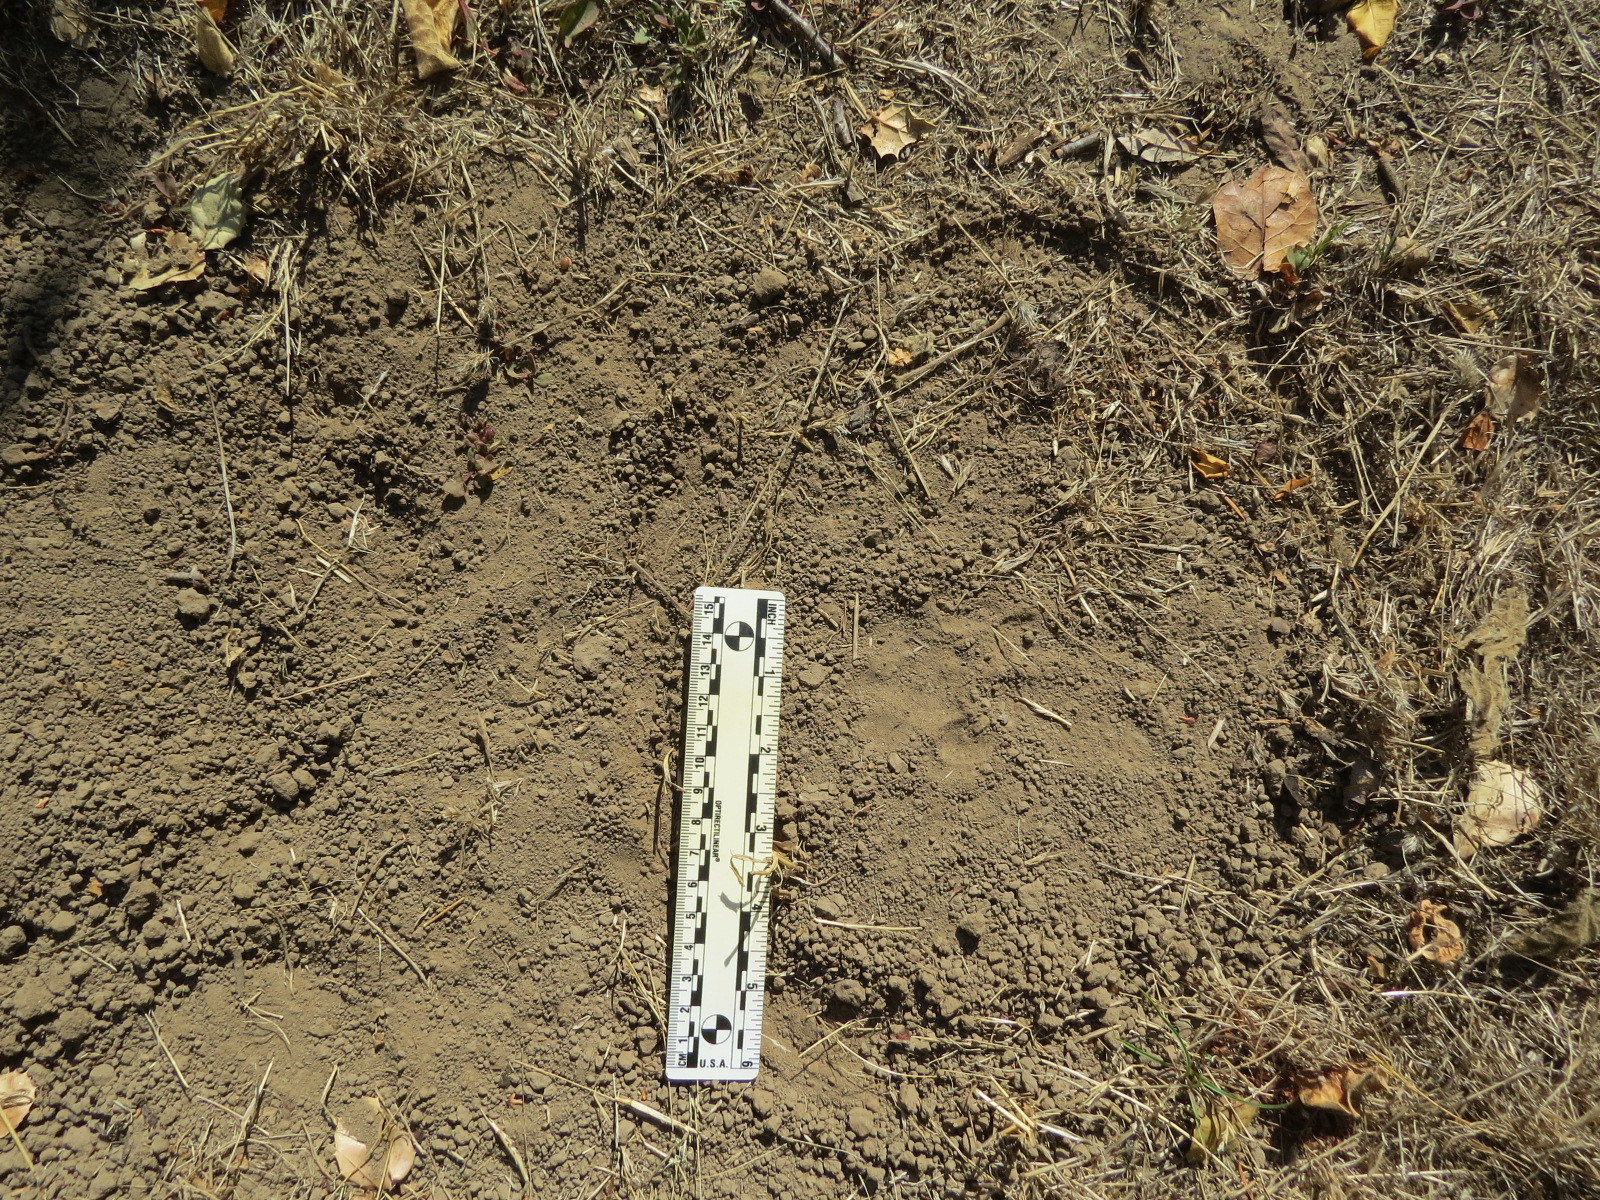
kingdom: Animalia
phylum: Chordata
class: Mammalia
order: Carnivora
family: Felidae
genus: Puma
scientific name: Puma concolor
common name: Puma
